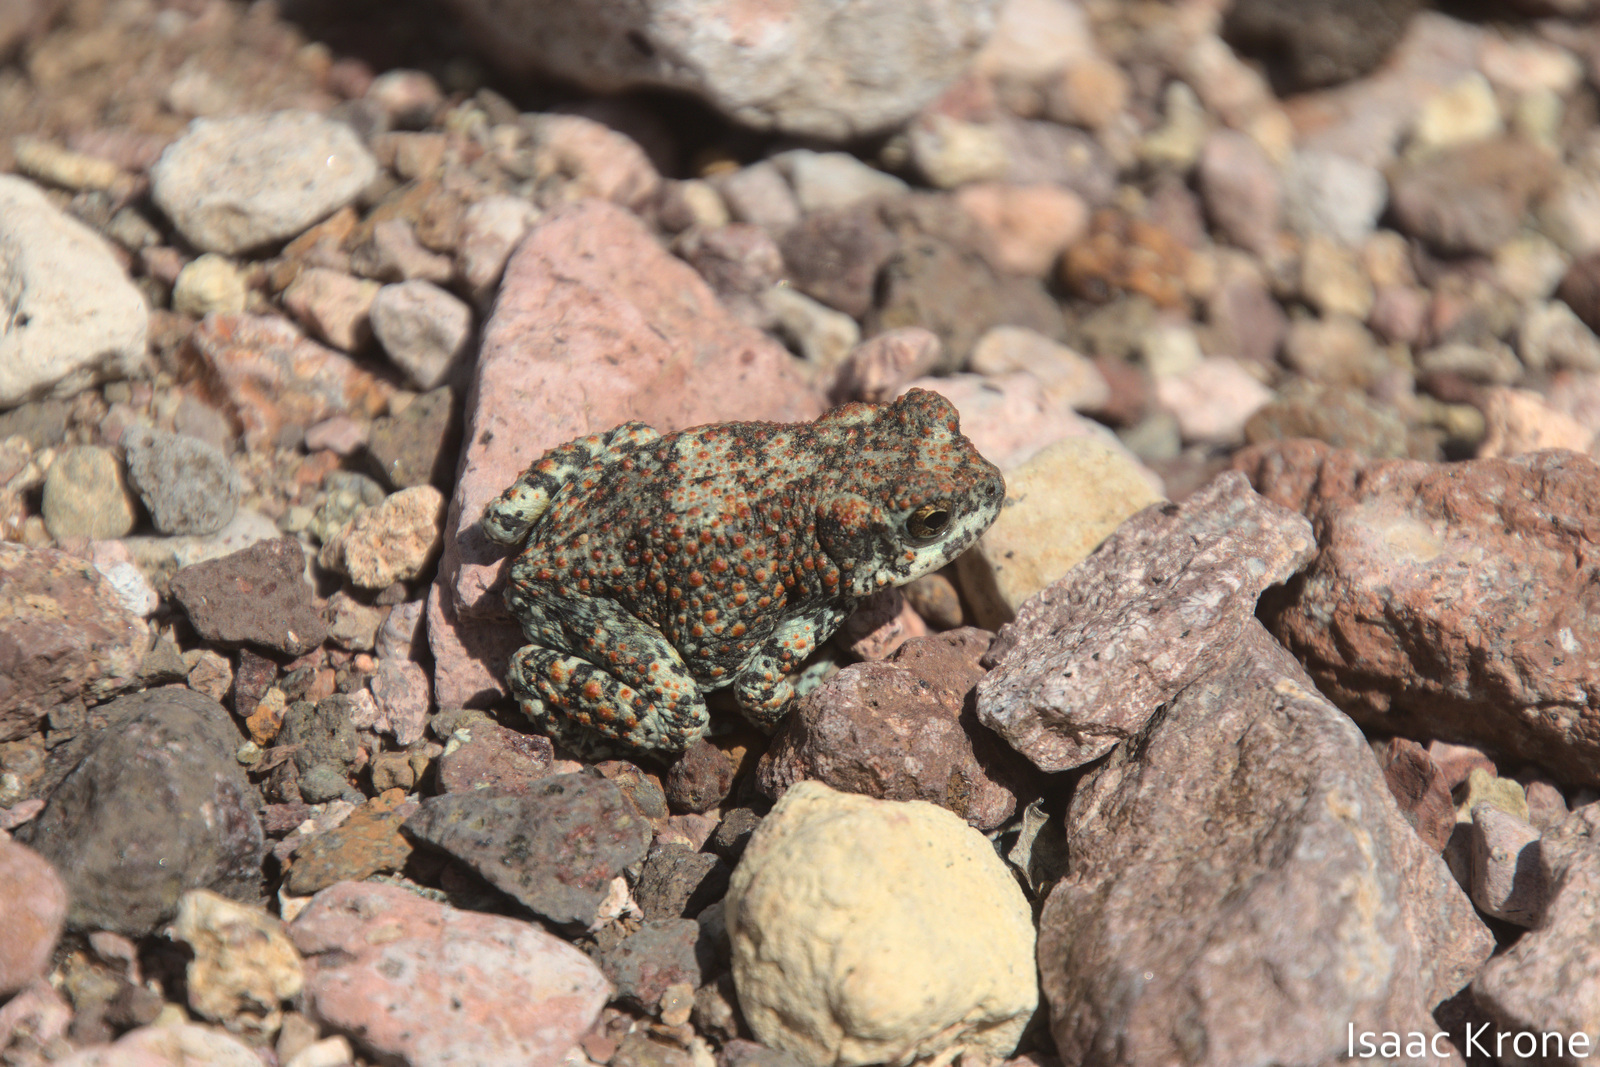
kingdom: Animalia
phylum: Chordata
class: Amphibia
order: Anura
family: Bufonidae
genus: Anaxyrus
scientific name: Anaxyrus punctatus
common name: Red-spotted toad
